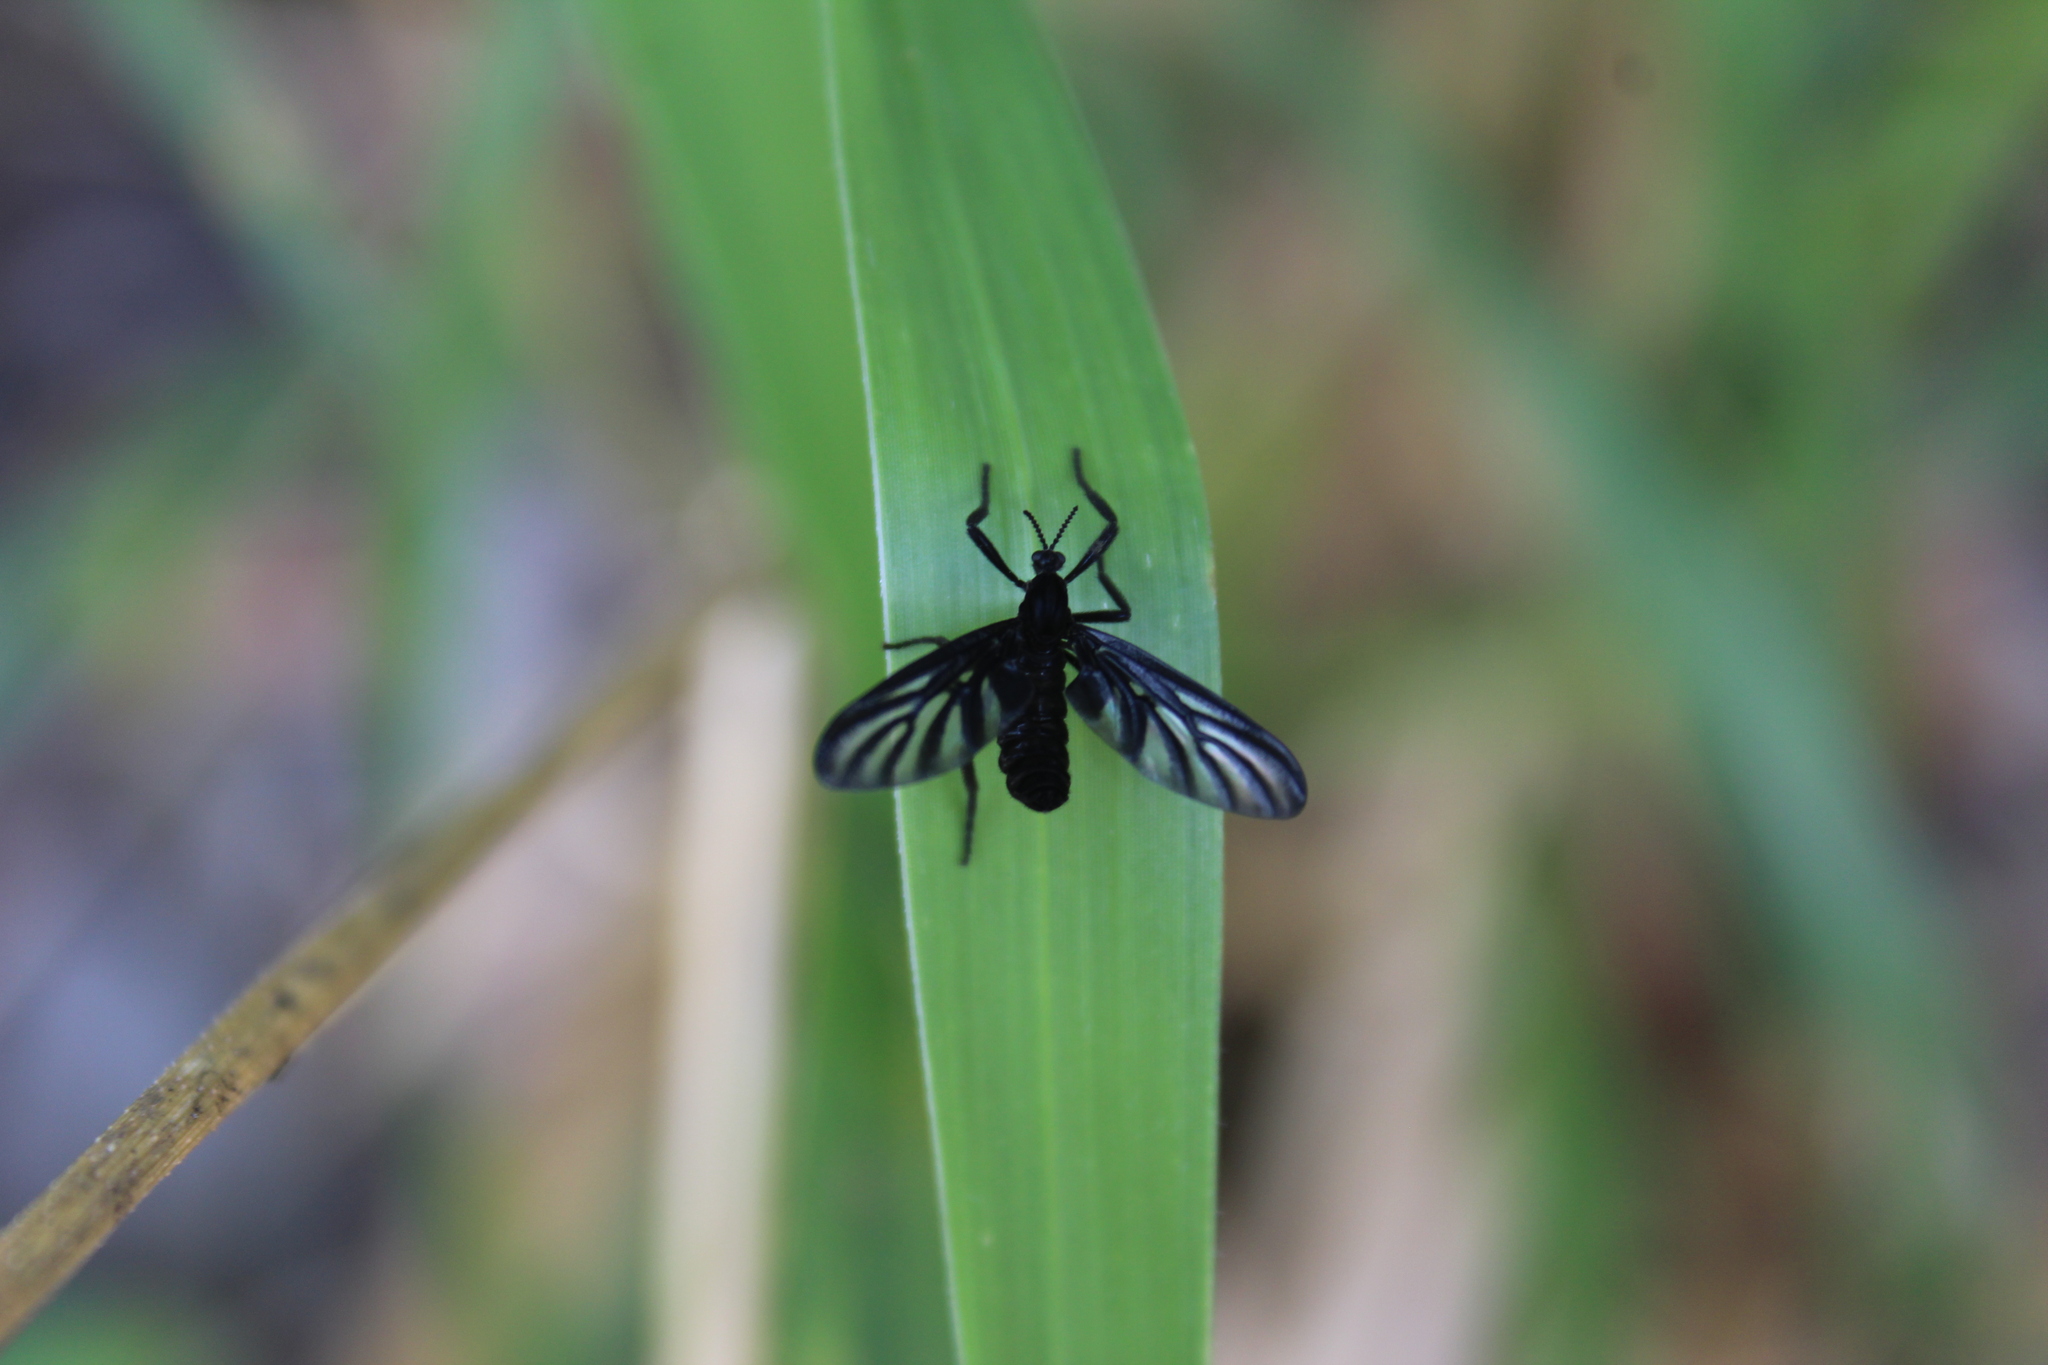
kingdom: Animalia
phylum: Arthropoda
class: Insecta
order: Diptera
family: Bibionidae
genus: Plecia
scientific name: Plecia plagiata
